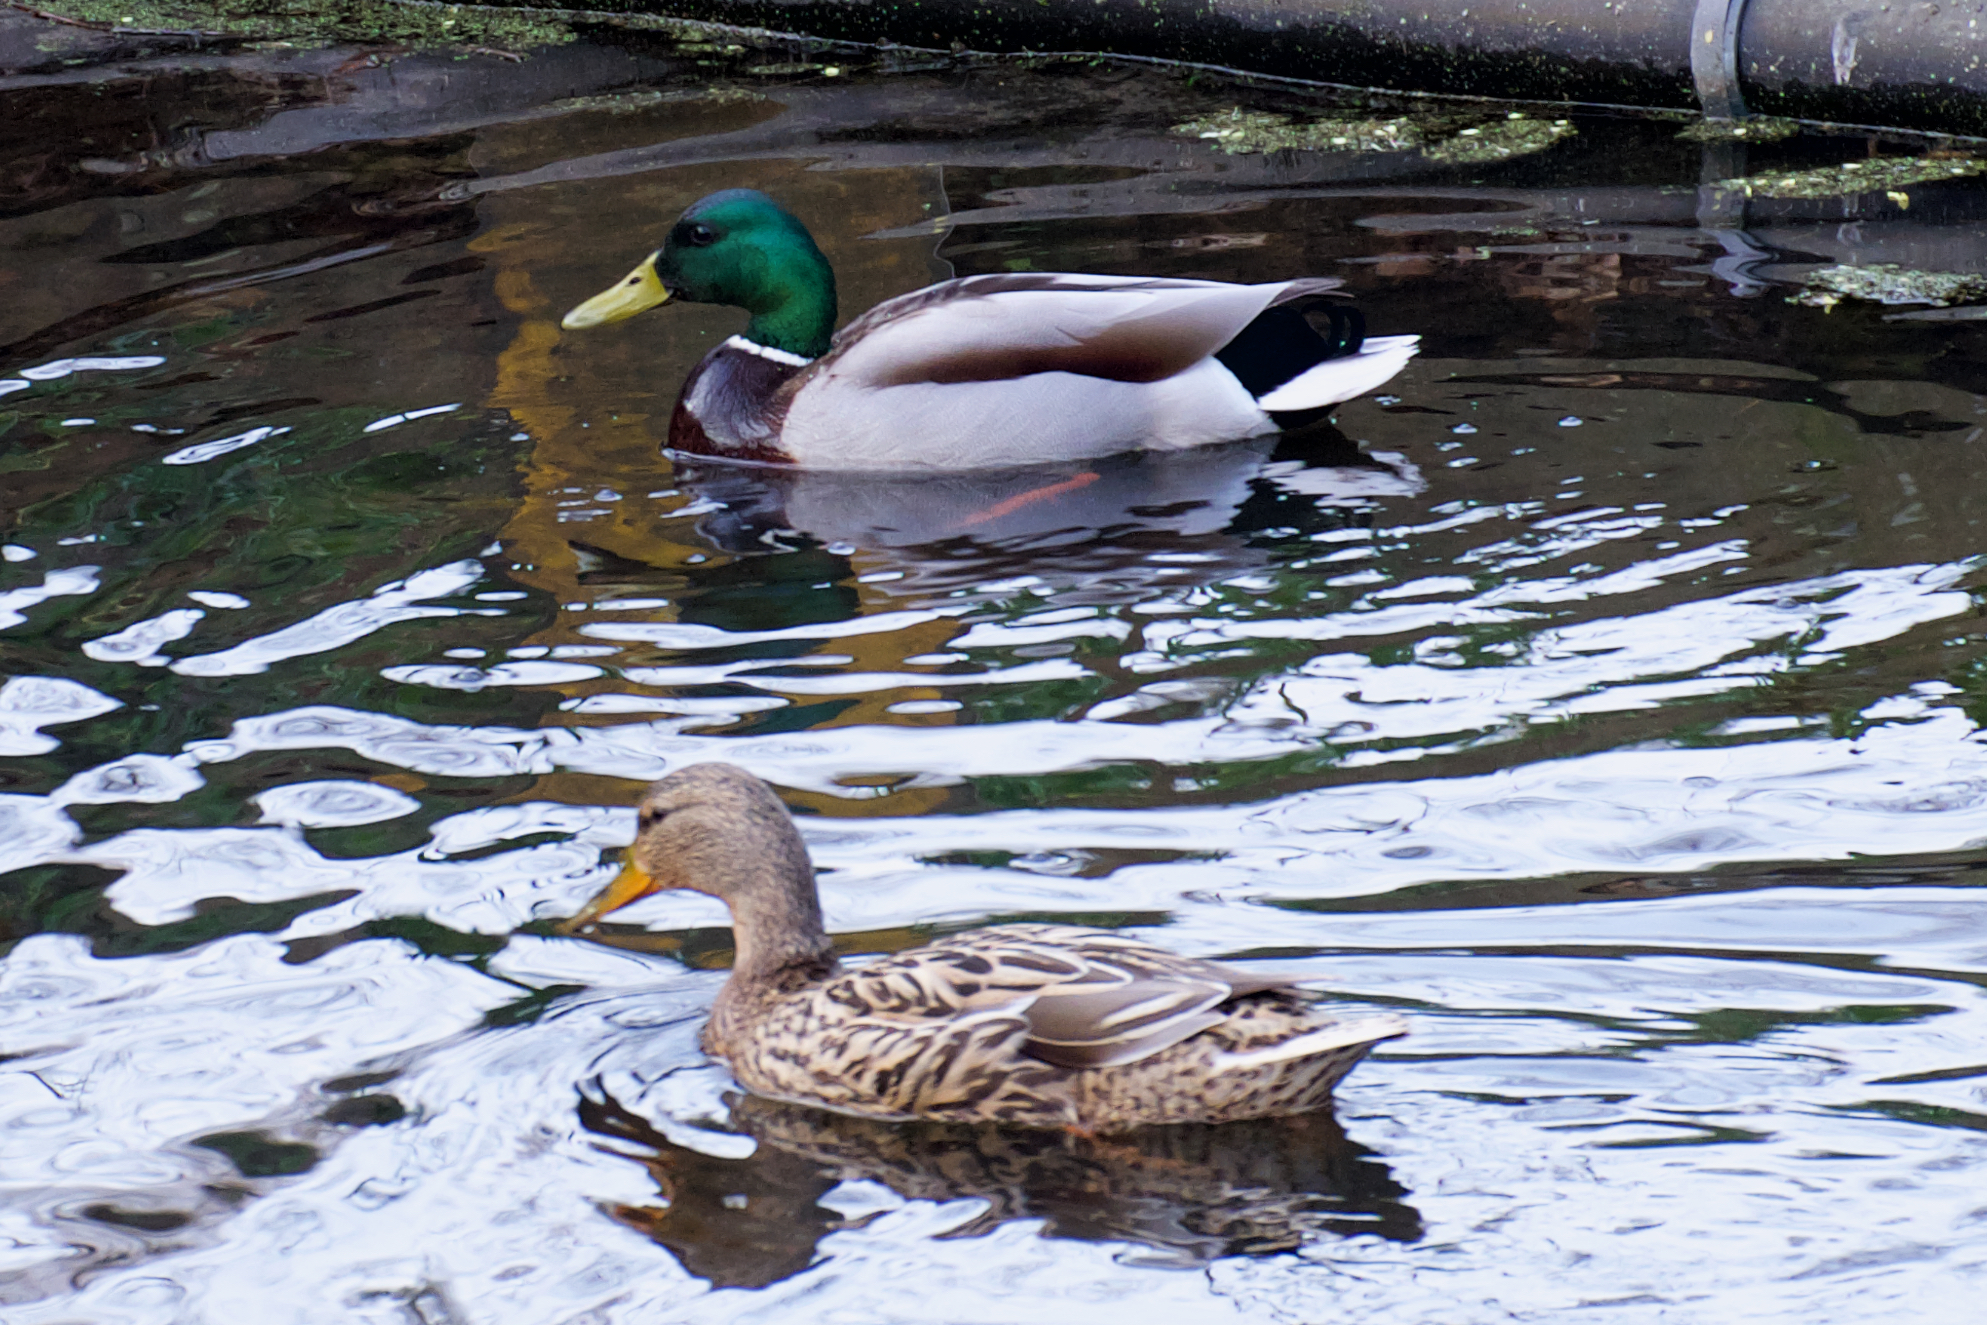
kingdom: Animalia
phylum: Chordata
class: Aves
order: Anseriformes
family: Anatidae
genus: Anas
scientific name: Anas platyrhynchos
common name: Mallard
